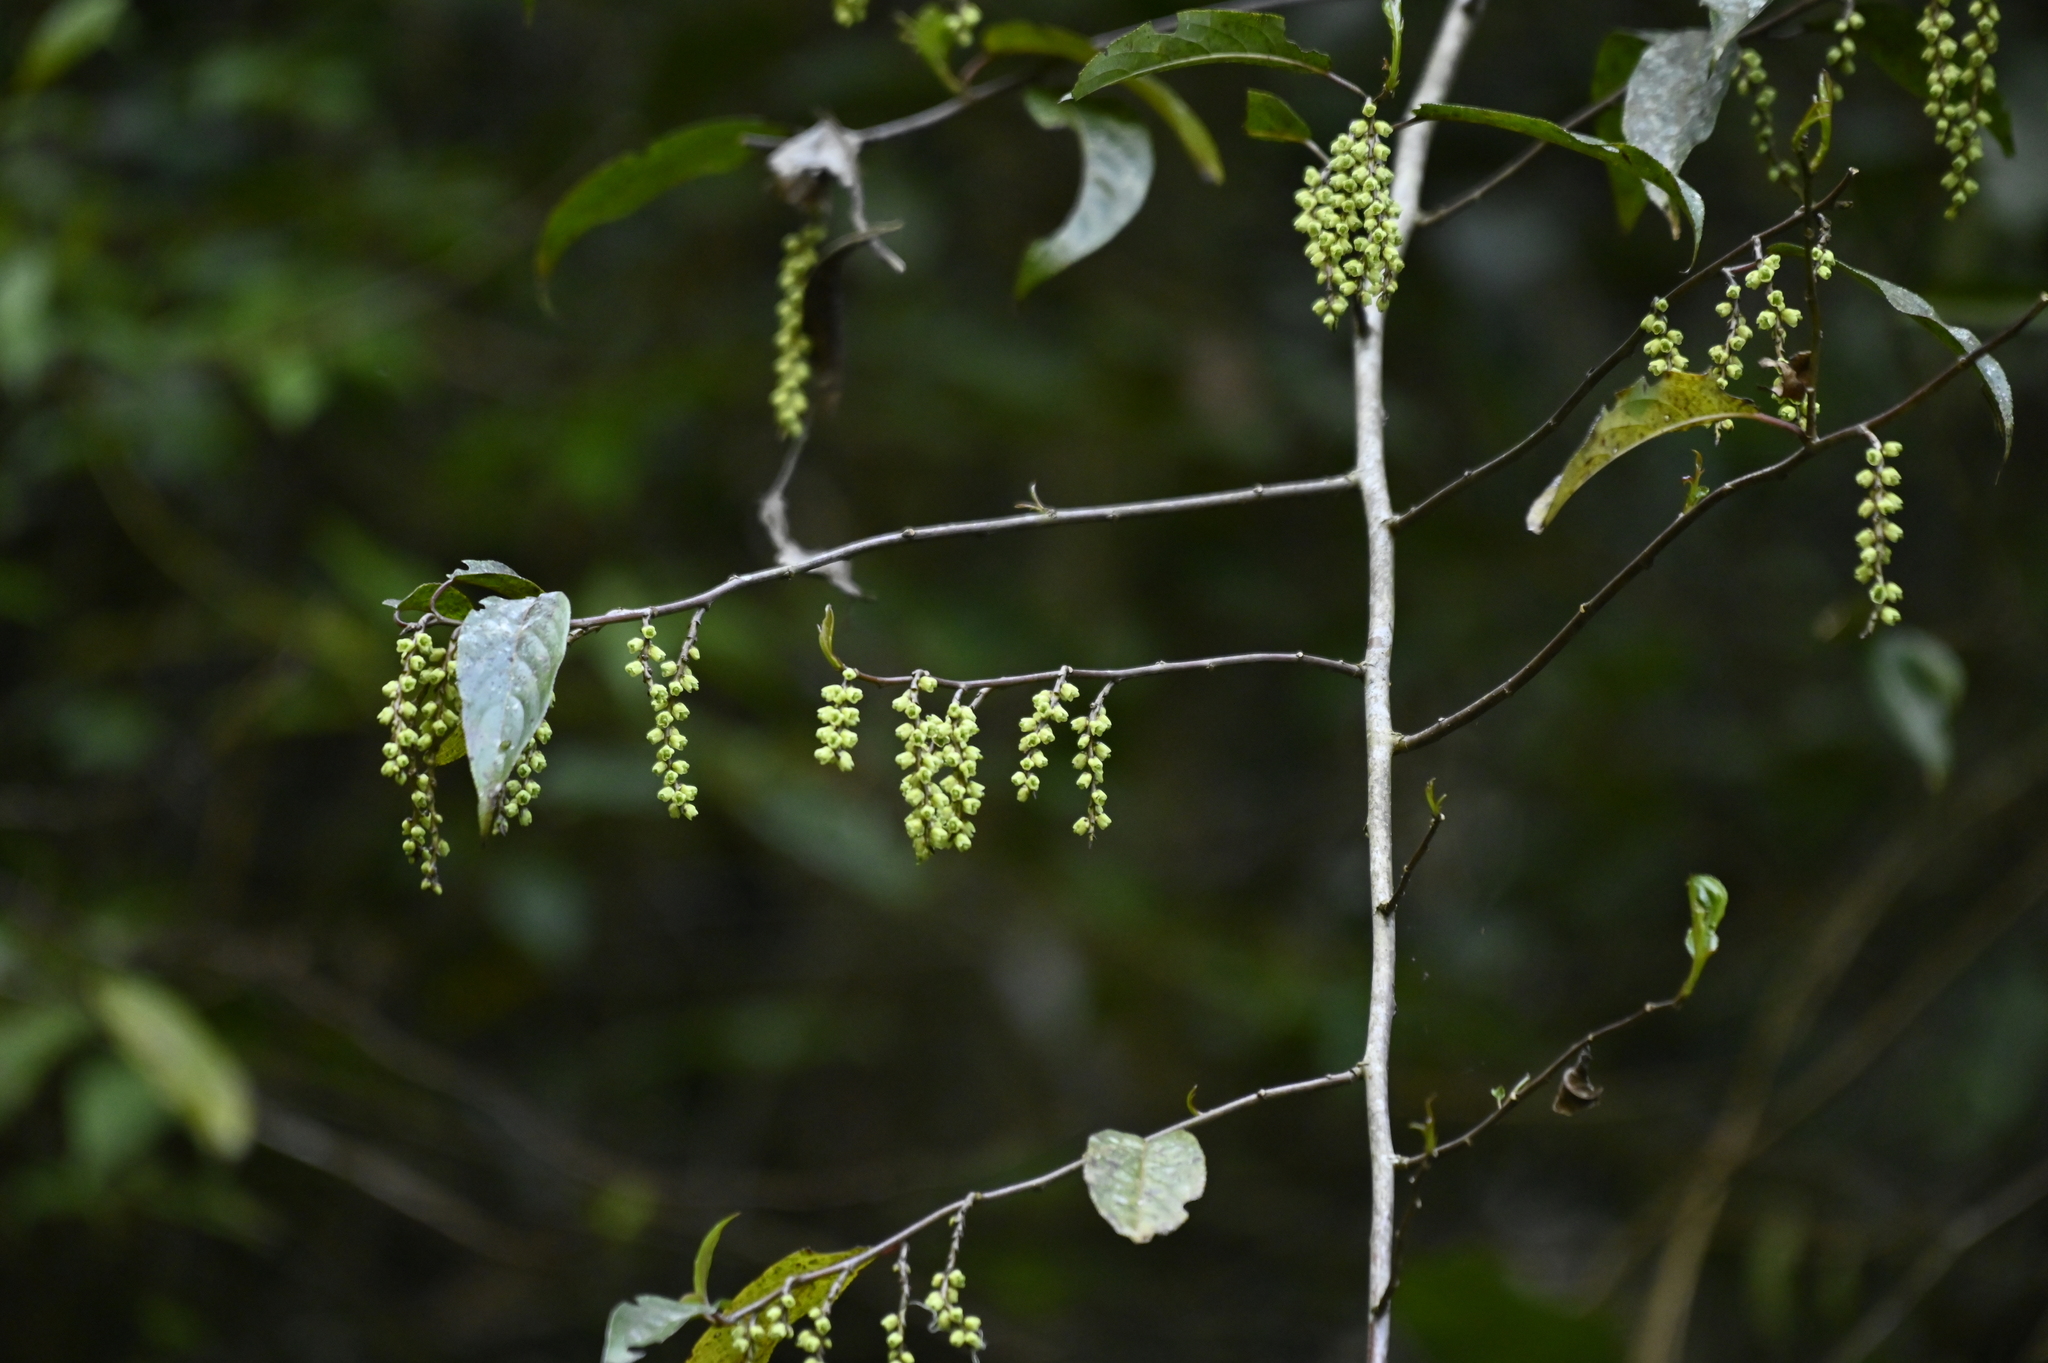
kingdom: Plantae
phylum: Tracheophyta
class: Magnoliopsida
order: Crossosomatales
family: Stachyuraceae
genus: Stachyurus
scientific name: Stachyurus himalaicus
